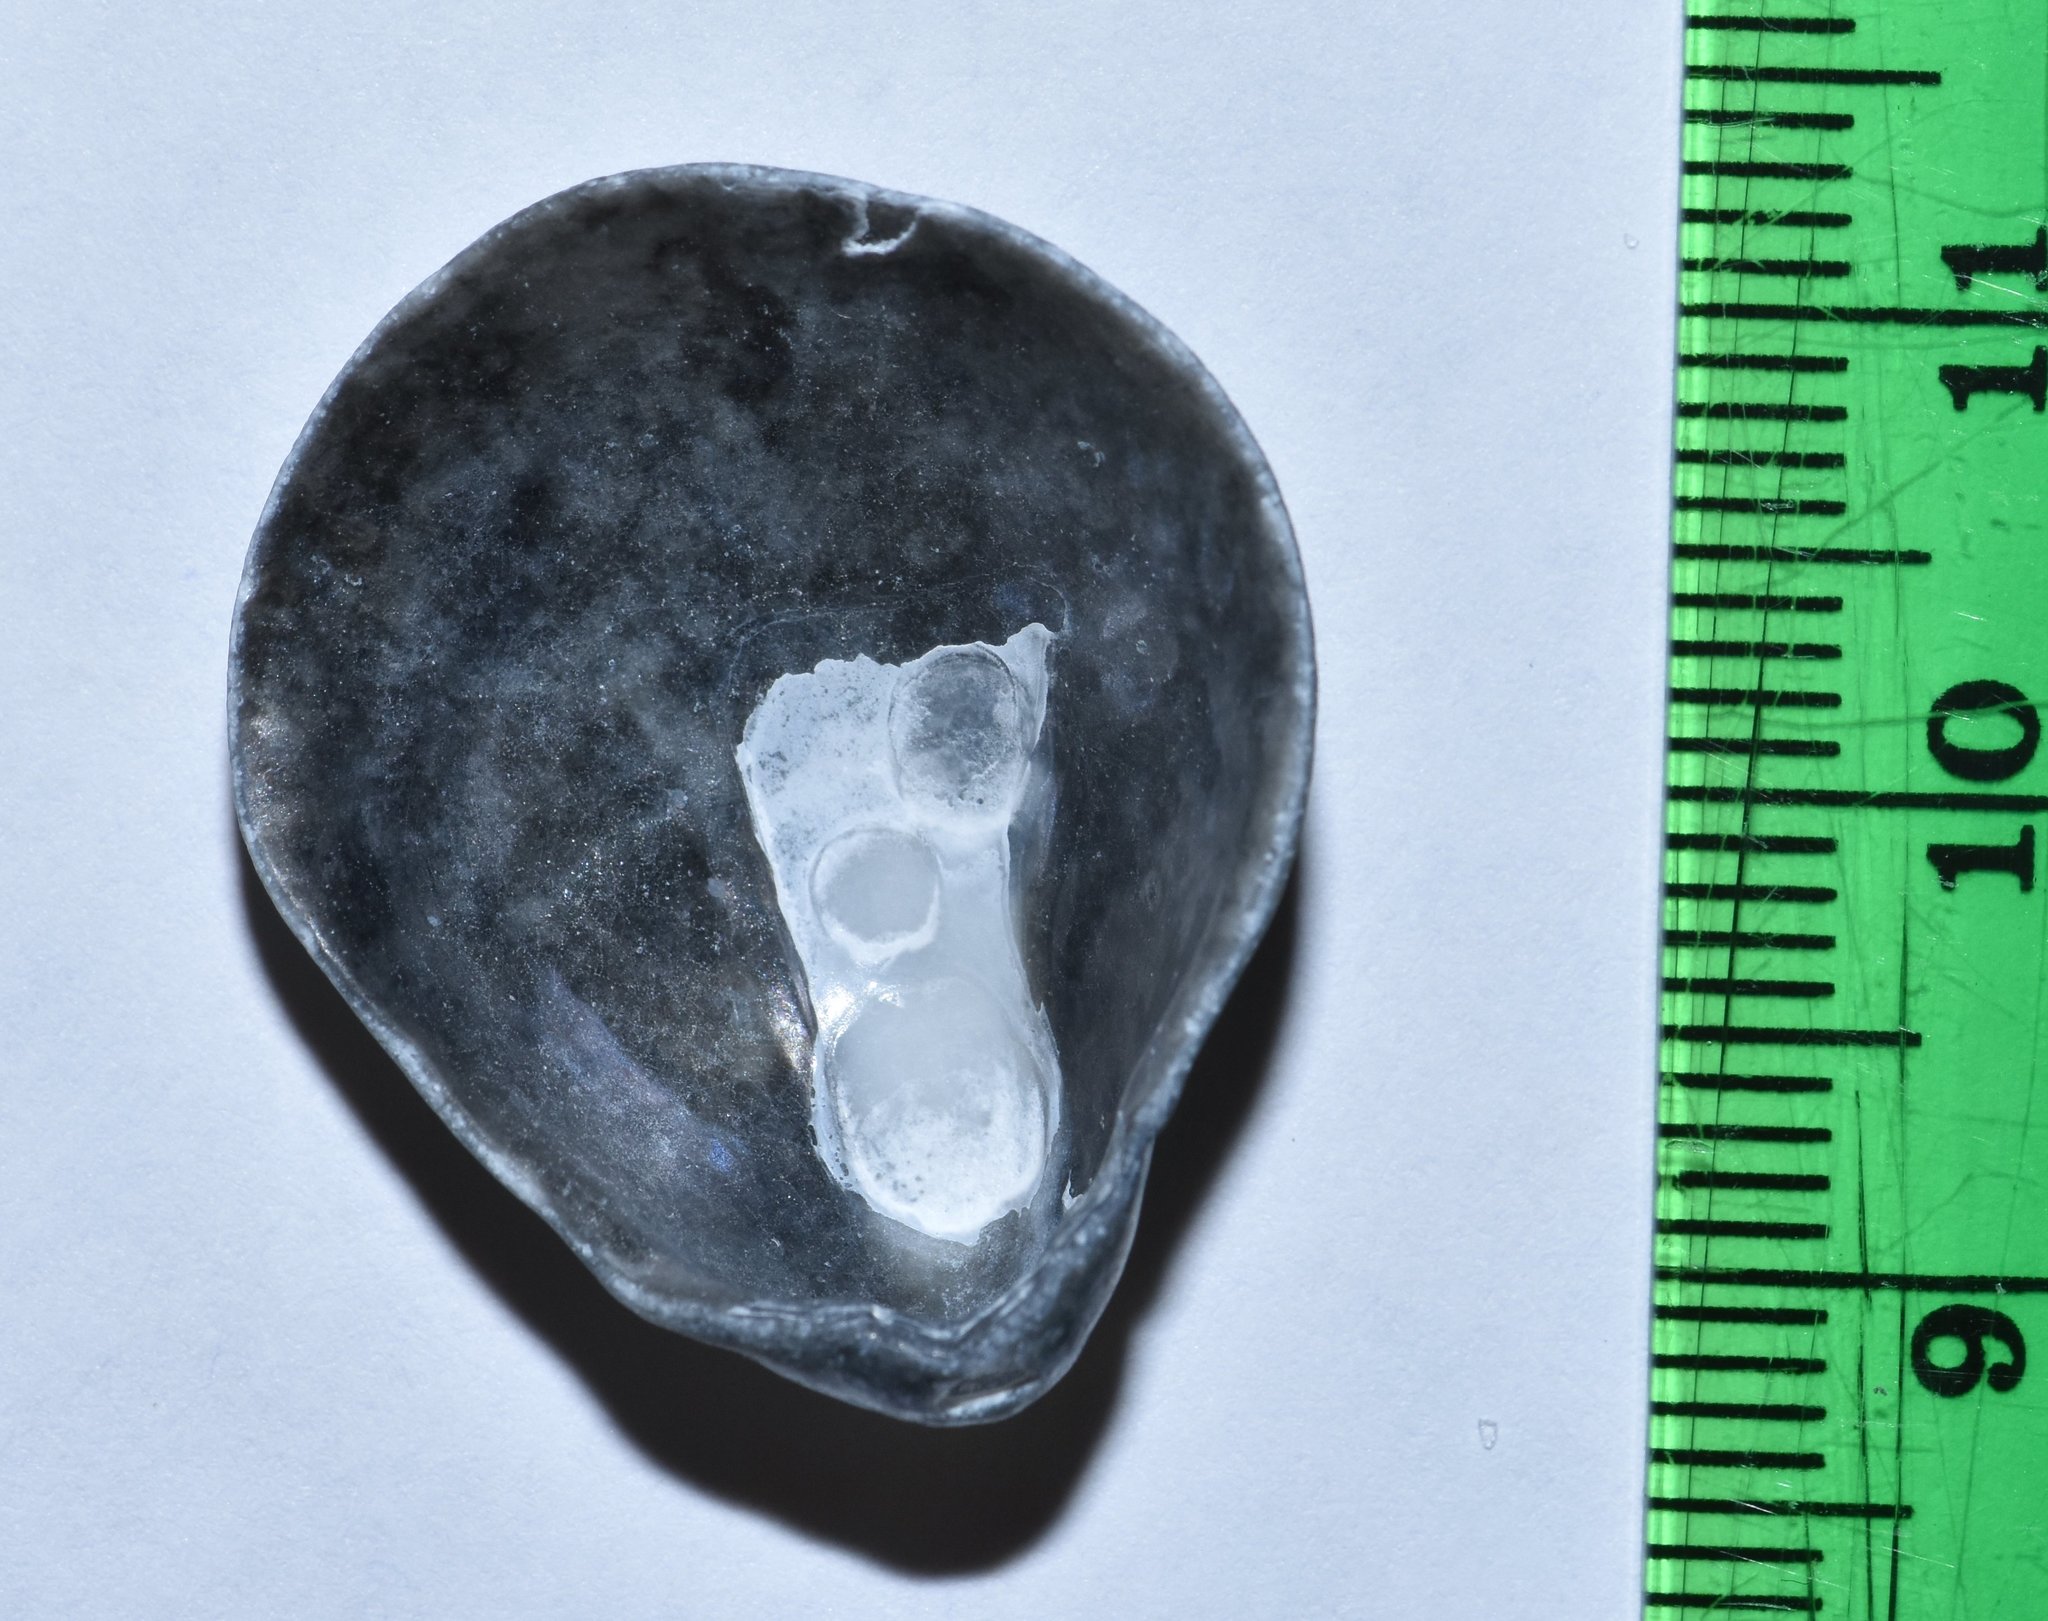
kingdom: Animalia
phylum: Mollusca
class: Bivalvia
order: Pectinida
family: Anomiidae
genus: Anomia
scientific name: Anomia simplex
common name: Common jingle shell
